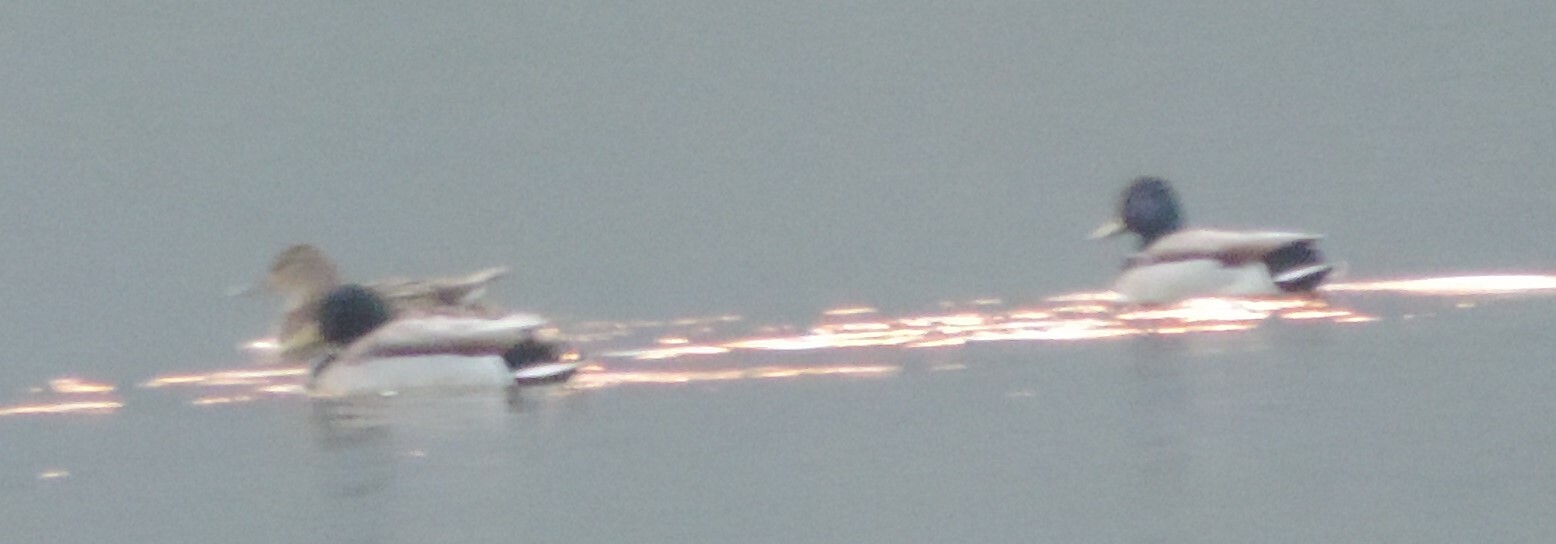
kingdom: Animalia
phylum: Chordata
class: Aves
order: Anseriformes
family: Anatidae
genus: Anas
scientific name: Anas platyrhynchos
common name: Mallard
